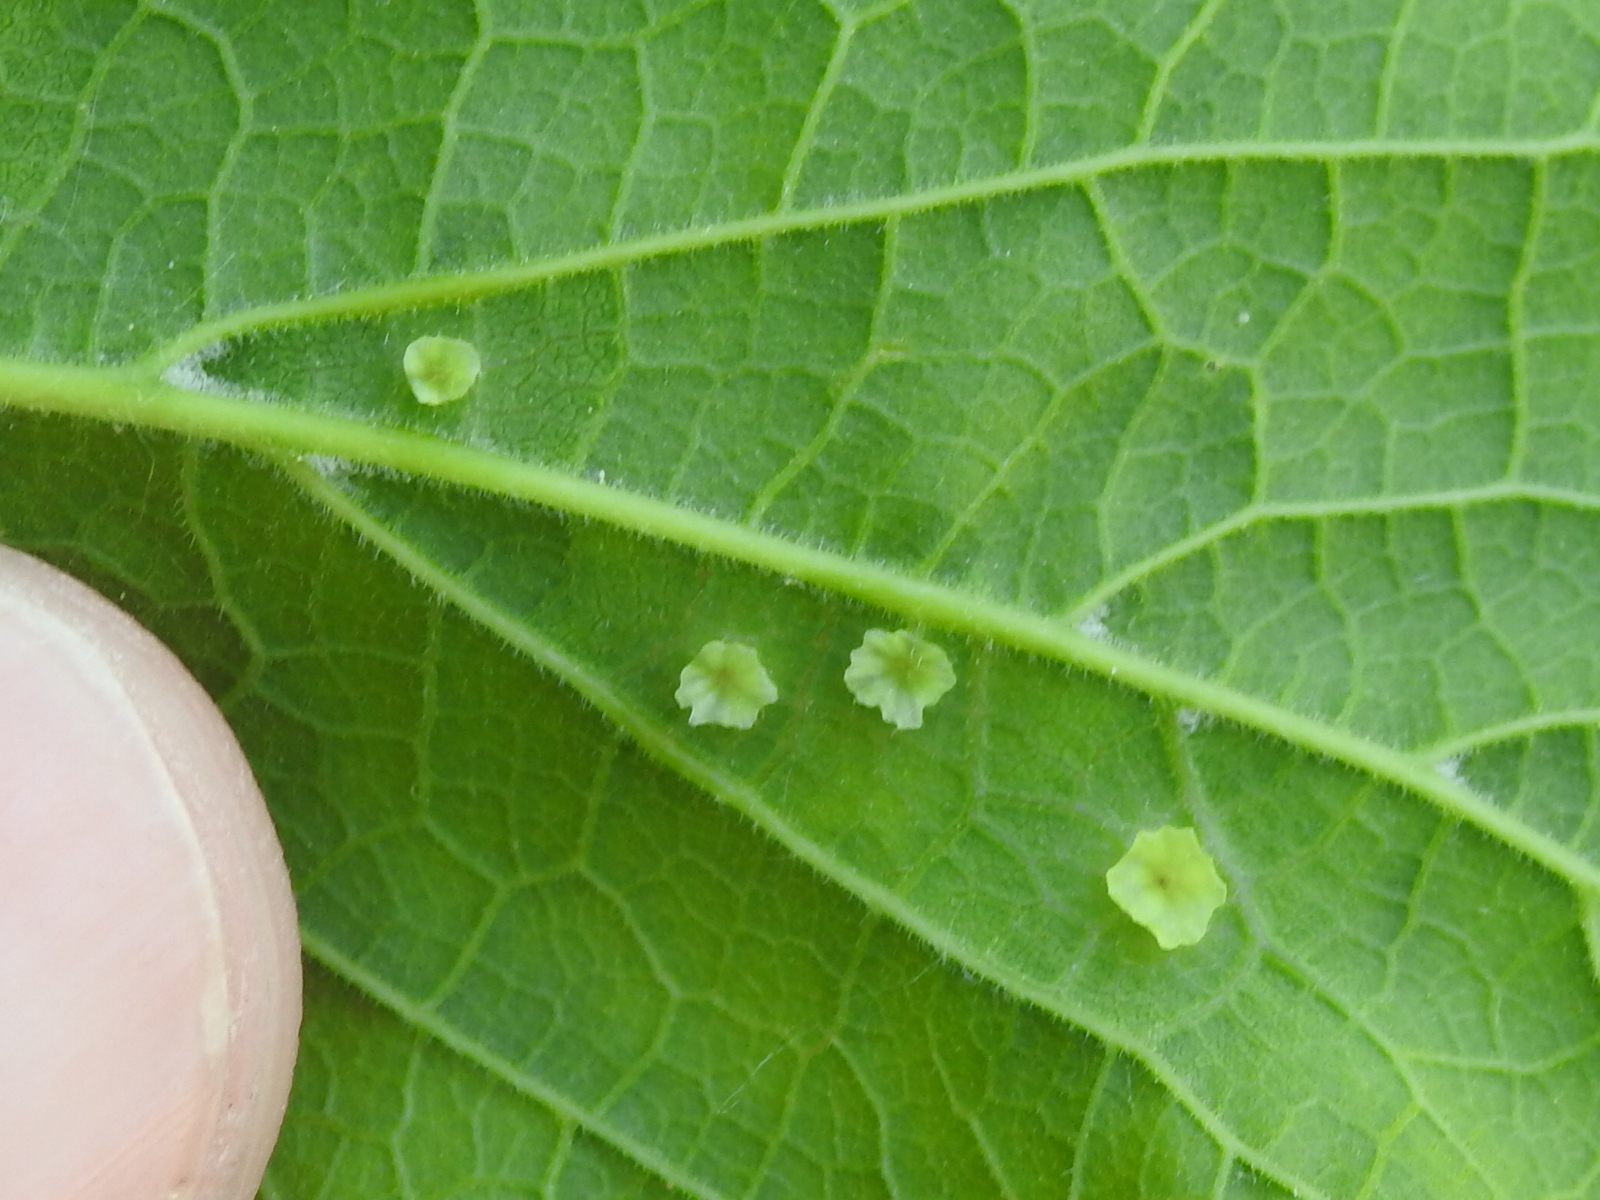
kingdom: Animalia
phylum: Arthropoda
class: Insecta
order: Hemiptera
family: Aphalaridae
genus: Pachypsylla
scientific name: Pachypsylla celtidisasterisca
